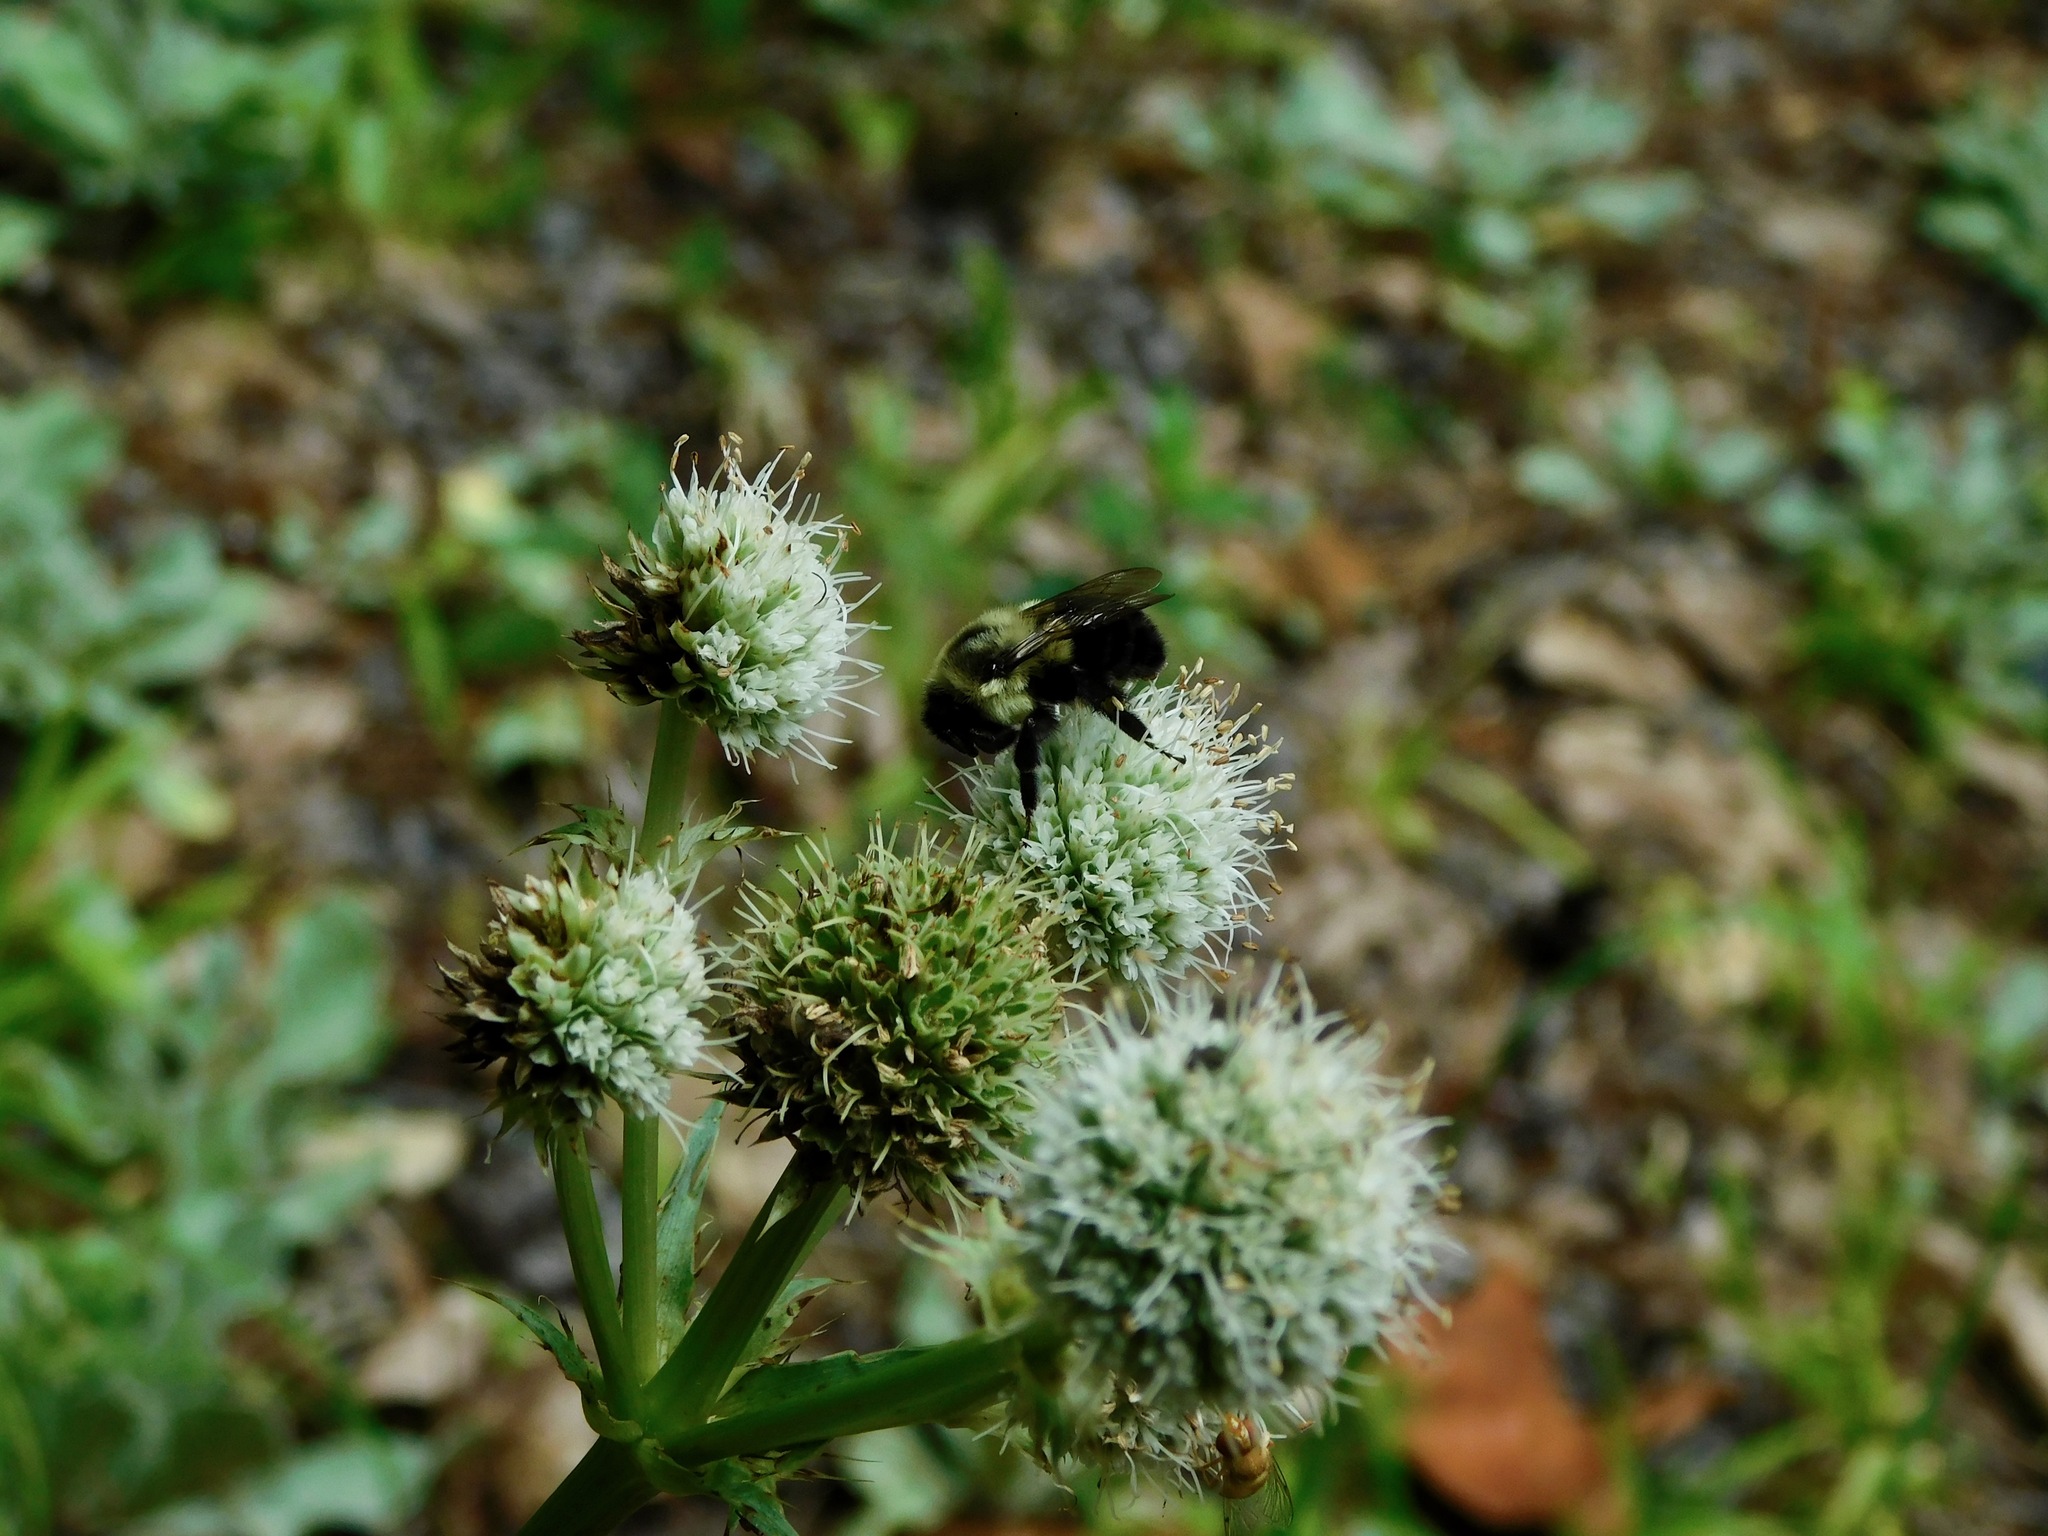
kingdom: Animalia
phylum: Arthropoda
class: Insecta
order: Hymenoptera
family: Apidae
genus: Bombus
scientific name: Bombus impatiens
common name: Common eastern bumble bee
